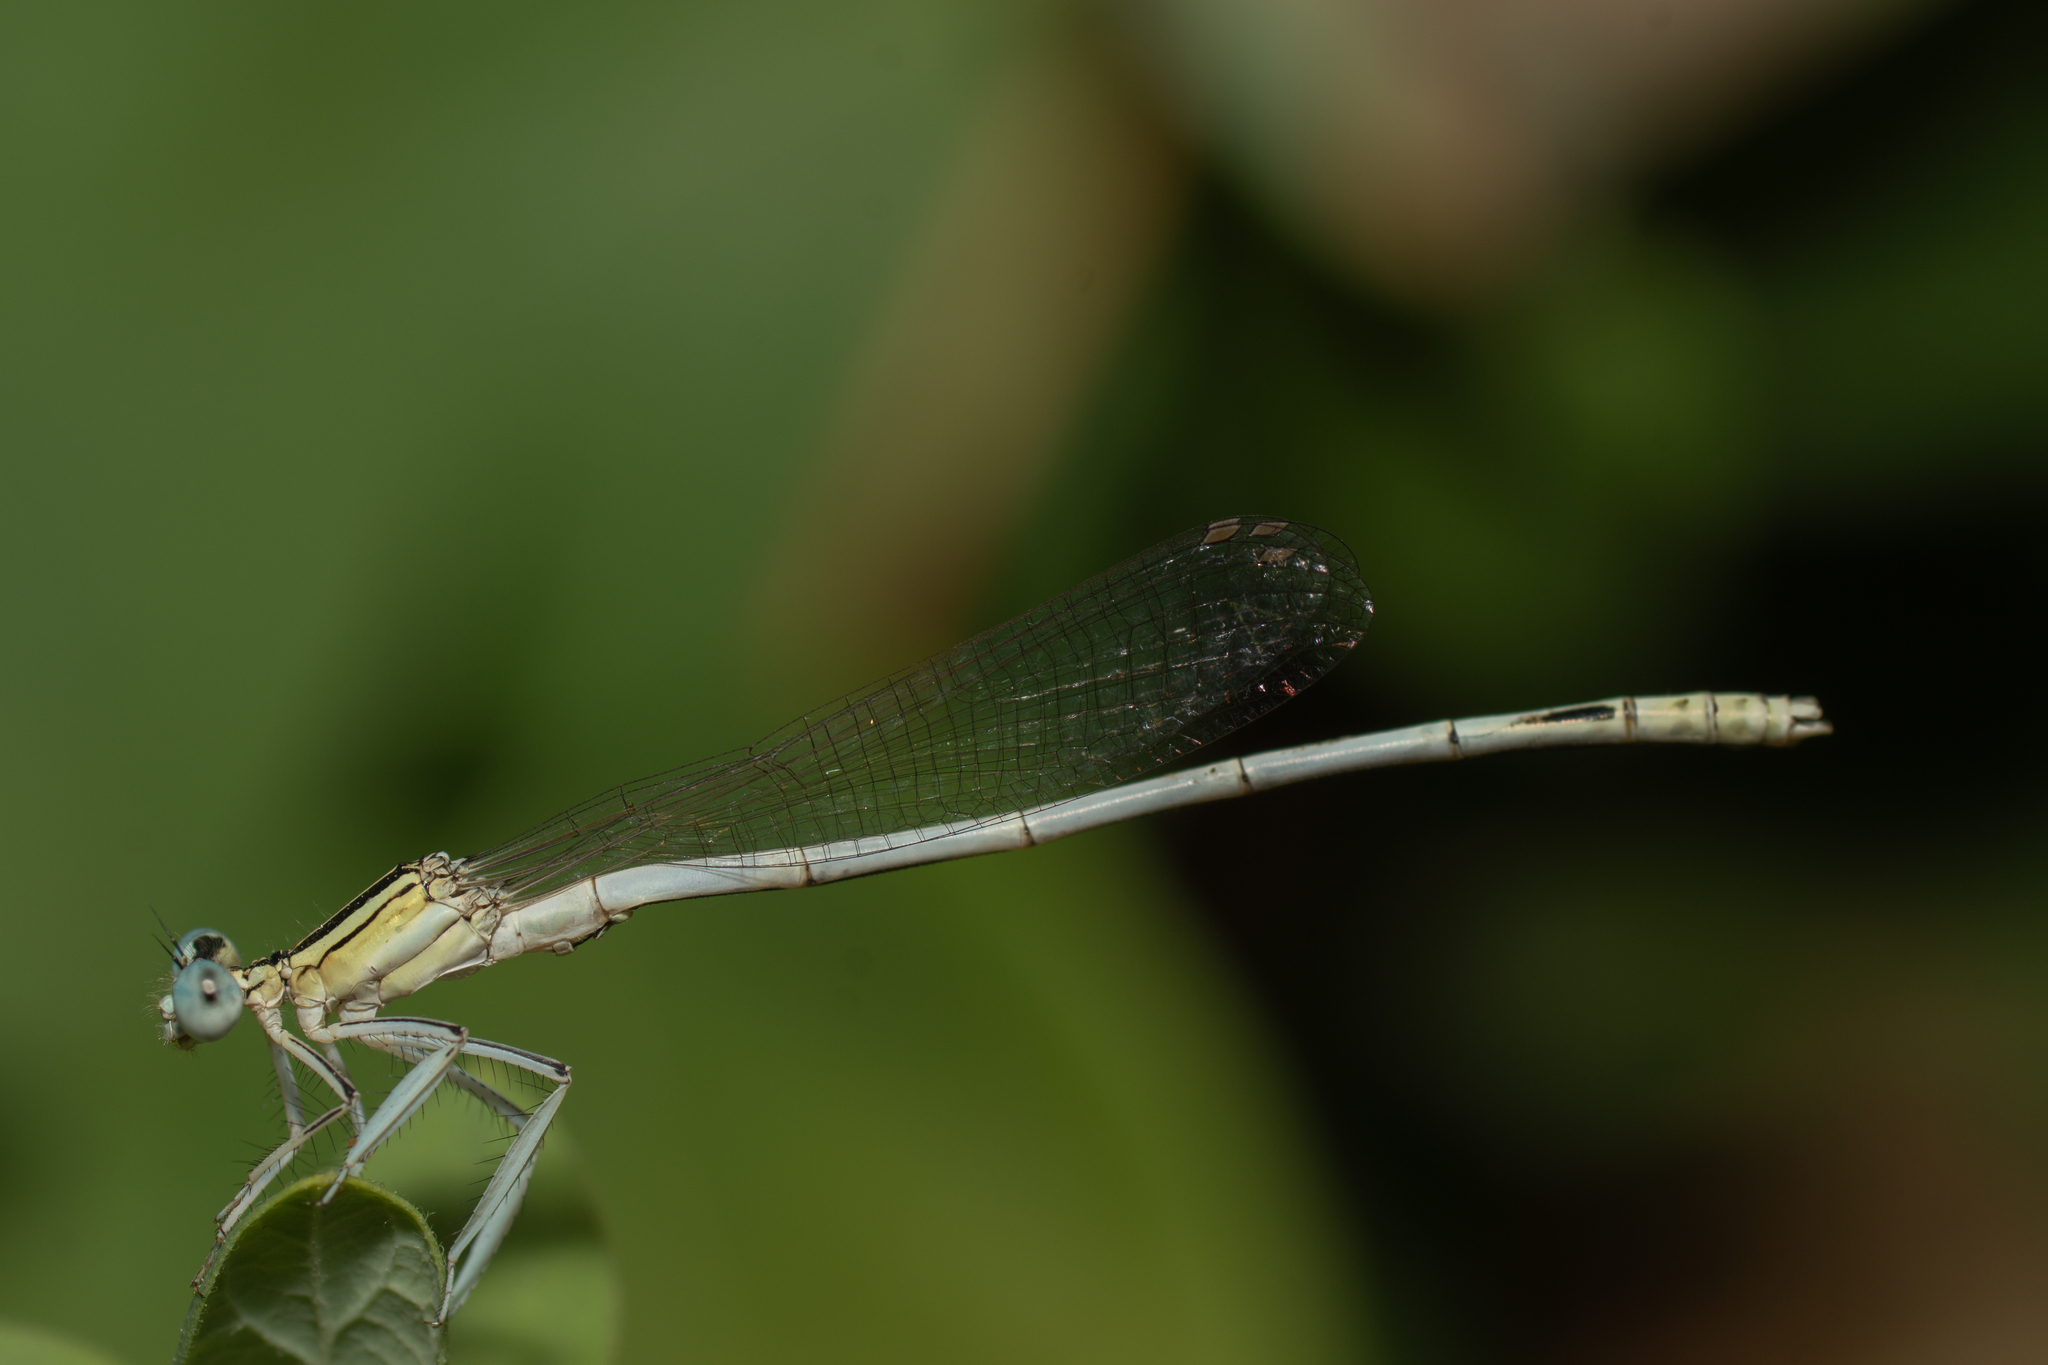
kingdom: Animalia
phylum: Arthropoda
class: Insecta
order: Odonata
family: Platycnemididae
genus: Platycnemis
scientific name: Platycnemis latipes
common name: White featherleg
